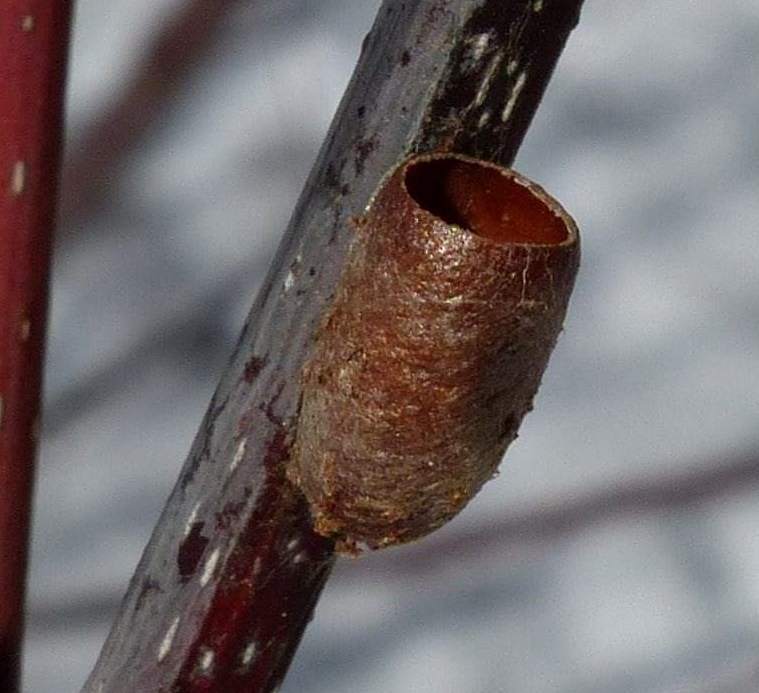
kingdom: Animalia
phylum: Arthropoda
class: Insecta
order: Hymenoptera
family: Diprionidae
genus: Diprion
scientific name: Diprion similis
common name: Pine sawfly
